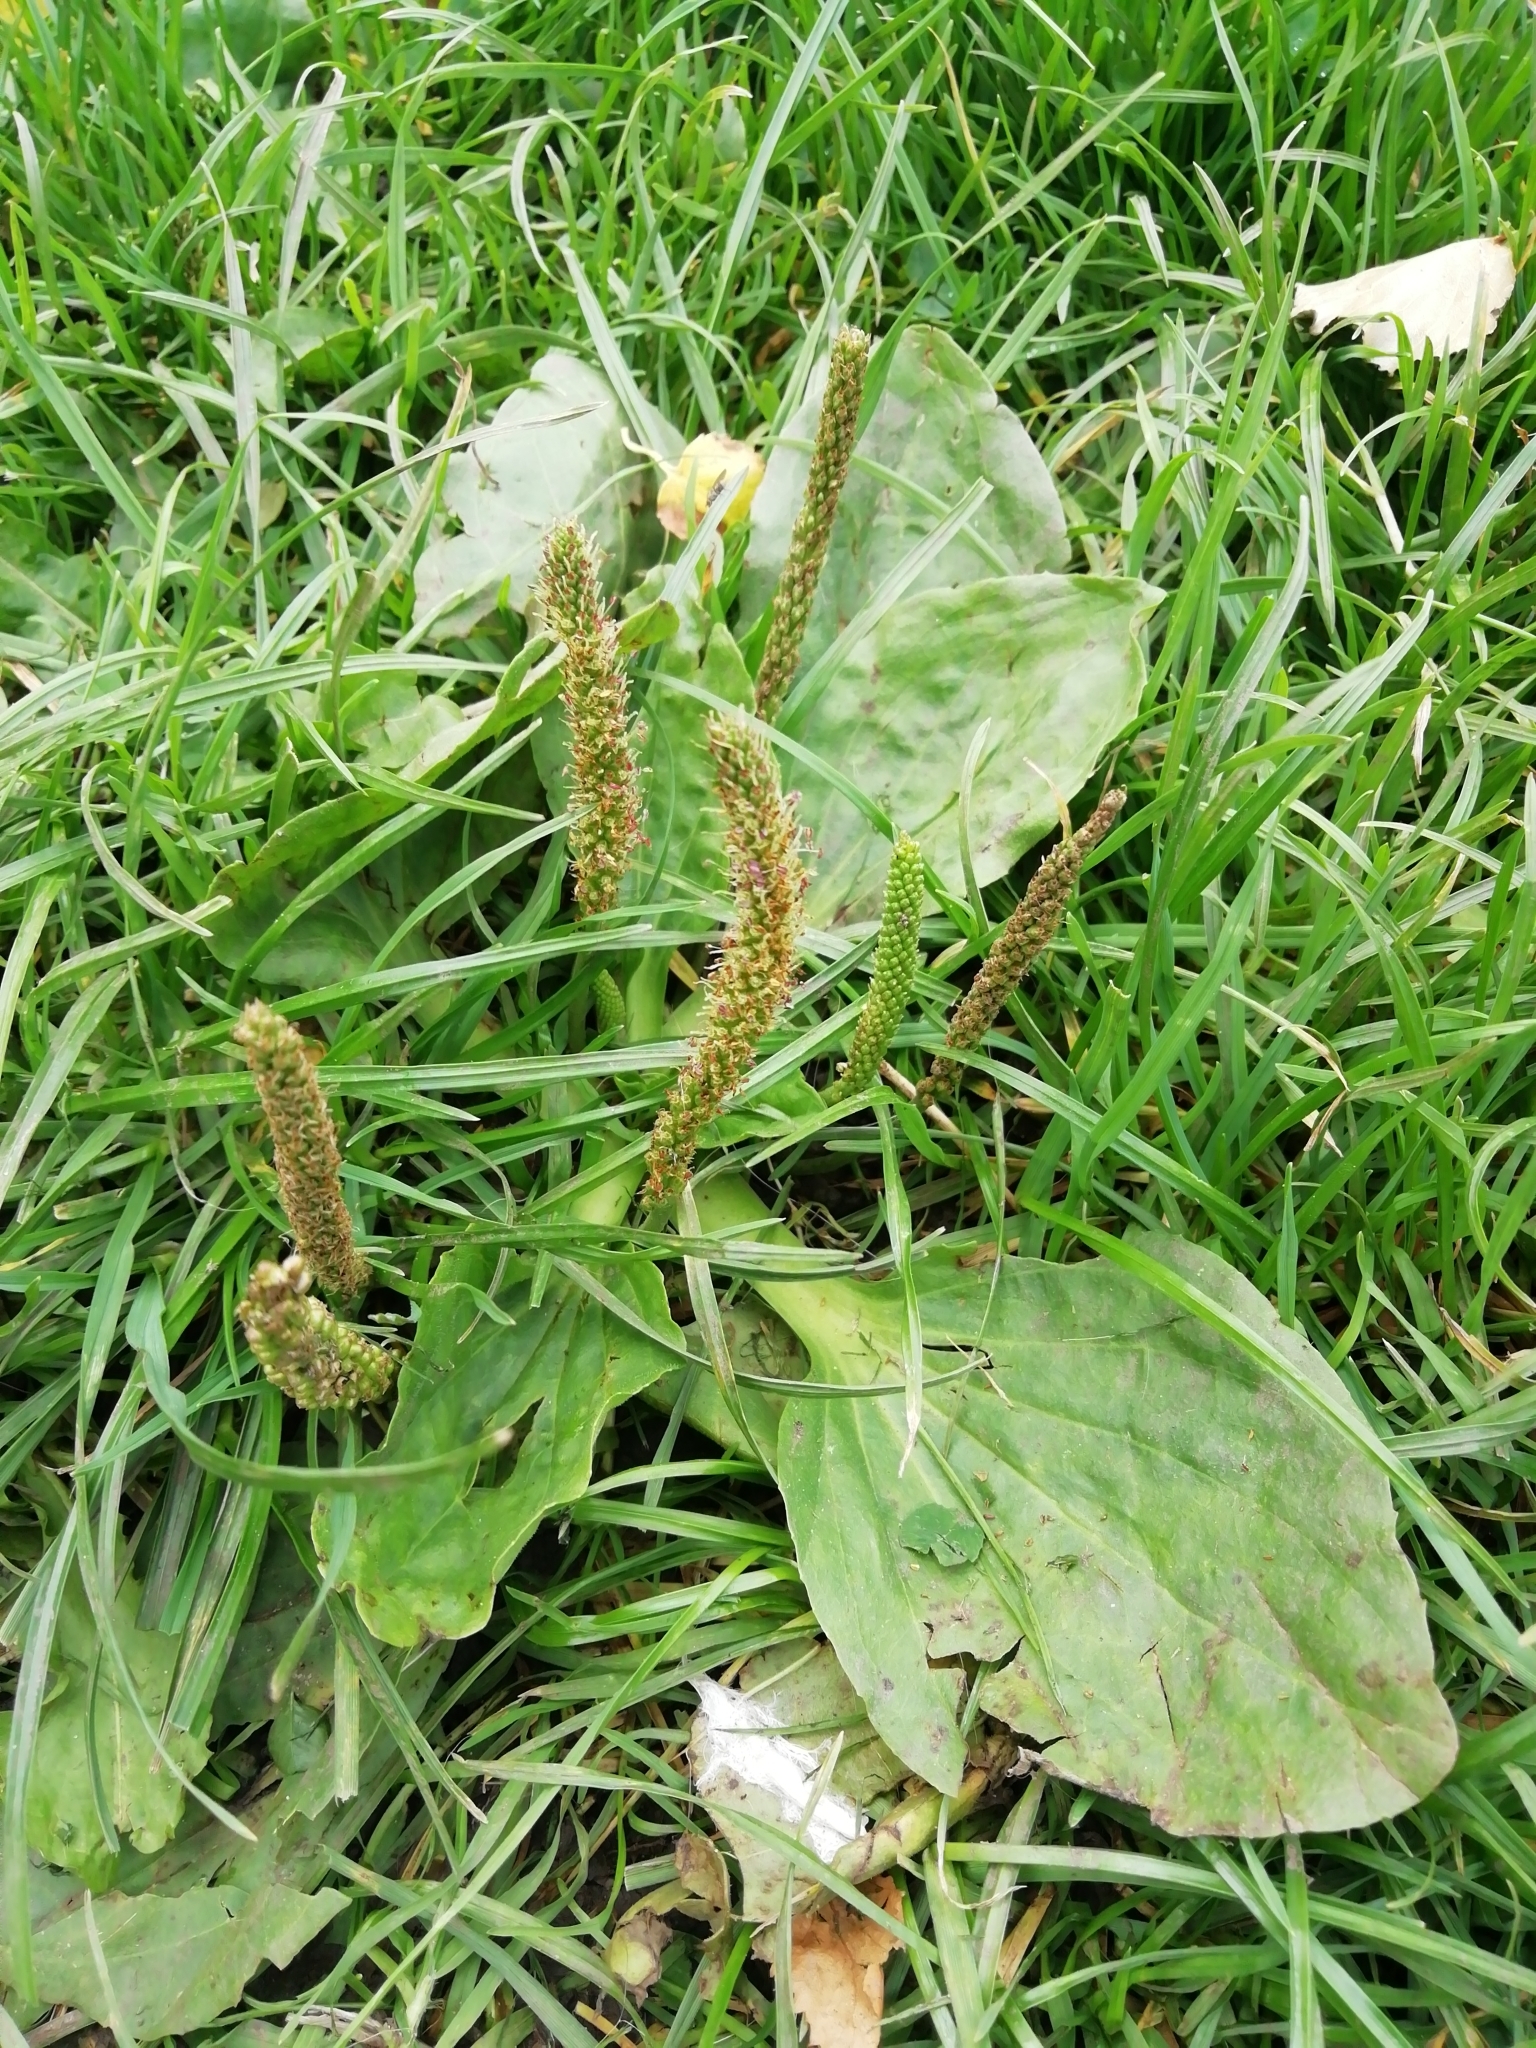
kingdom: Plantae
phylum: Tracheophyta
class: Magnoliopsida
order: Lamiales
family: Plantaginaceae
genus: Plantago
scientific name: Plantago major
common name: Common plantain
